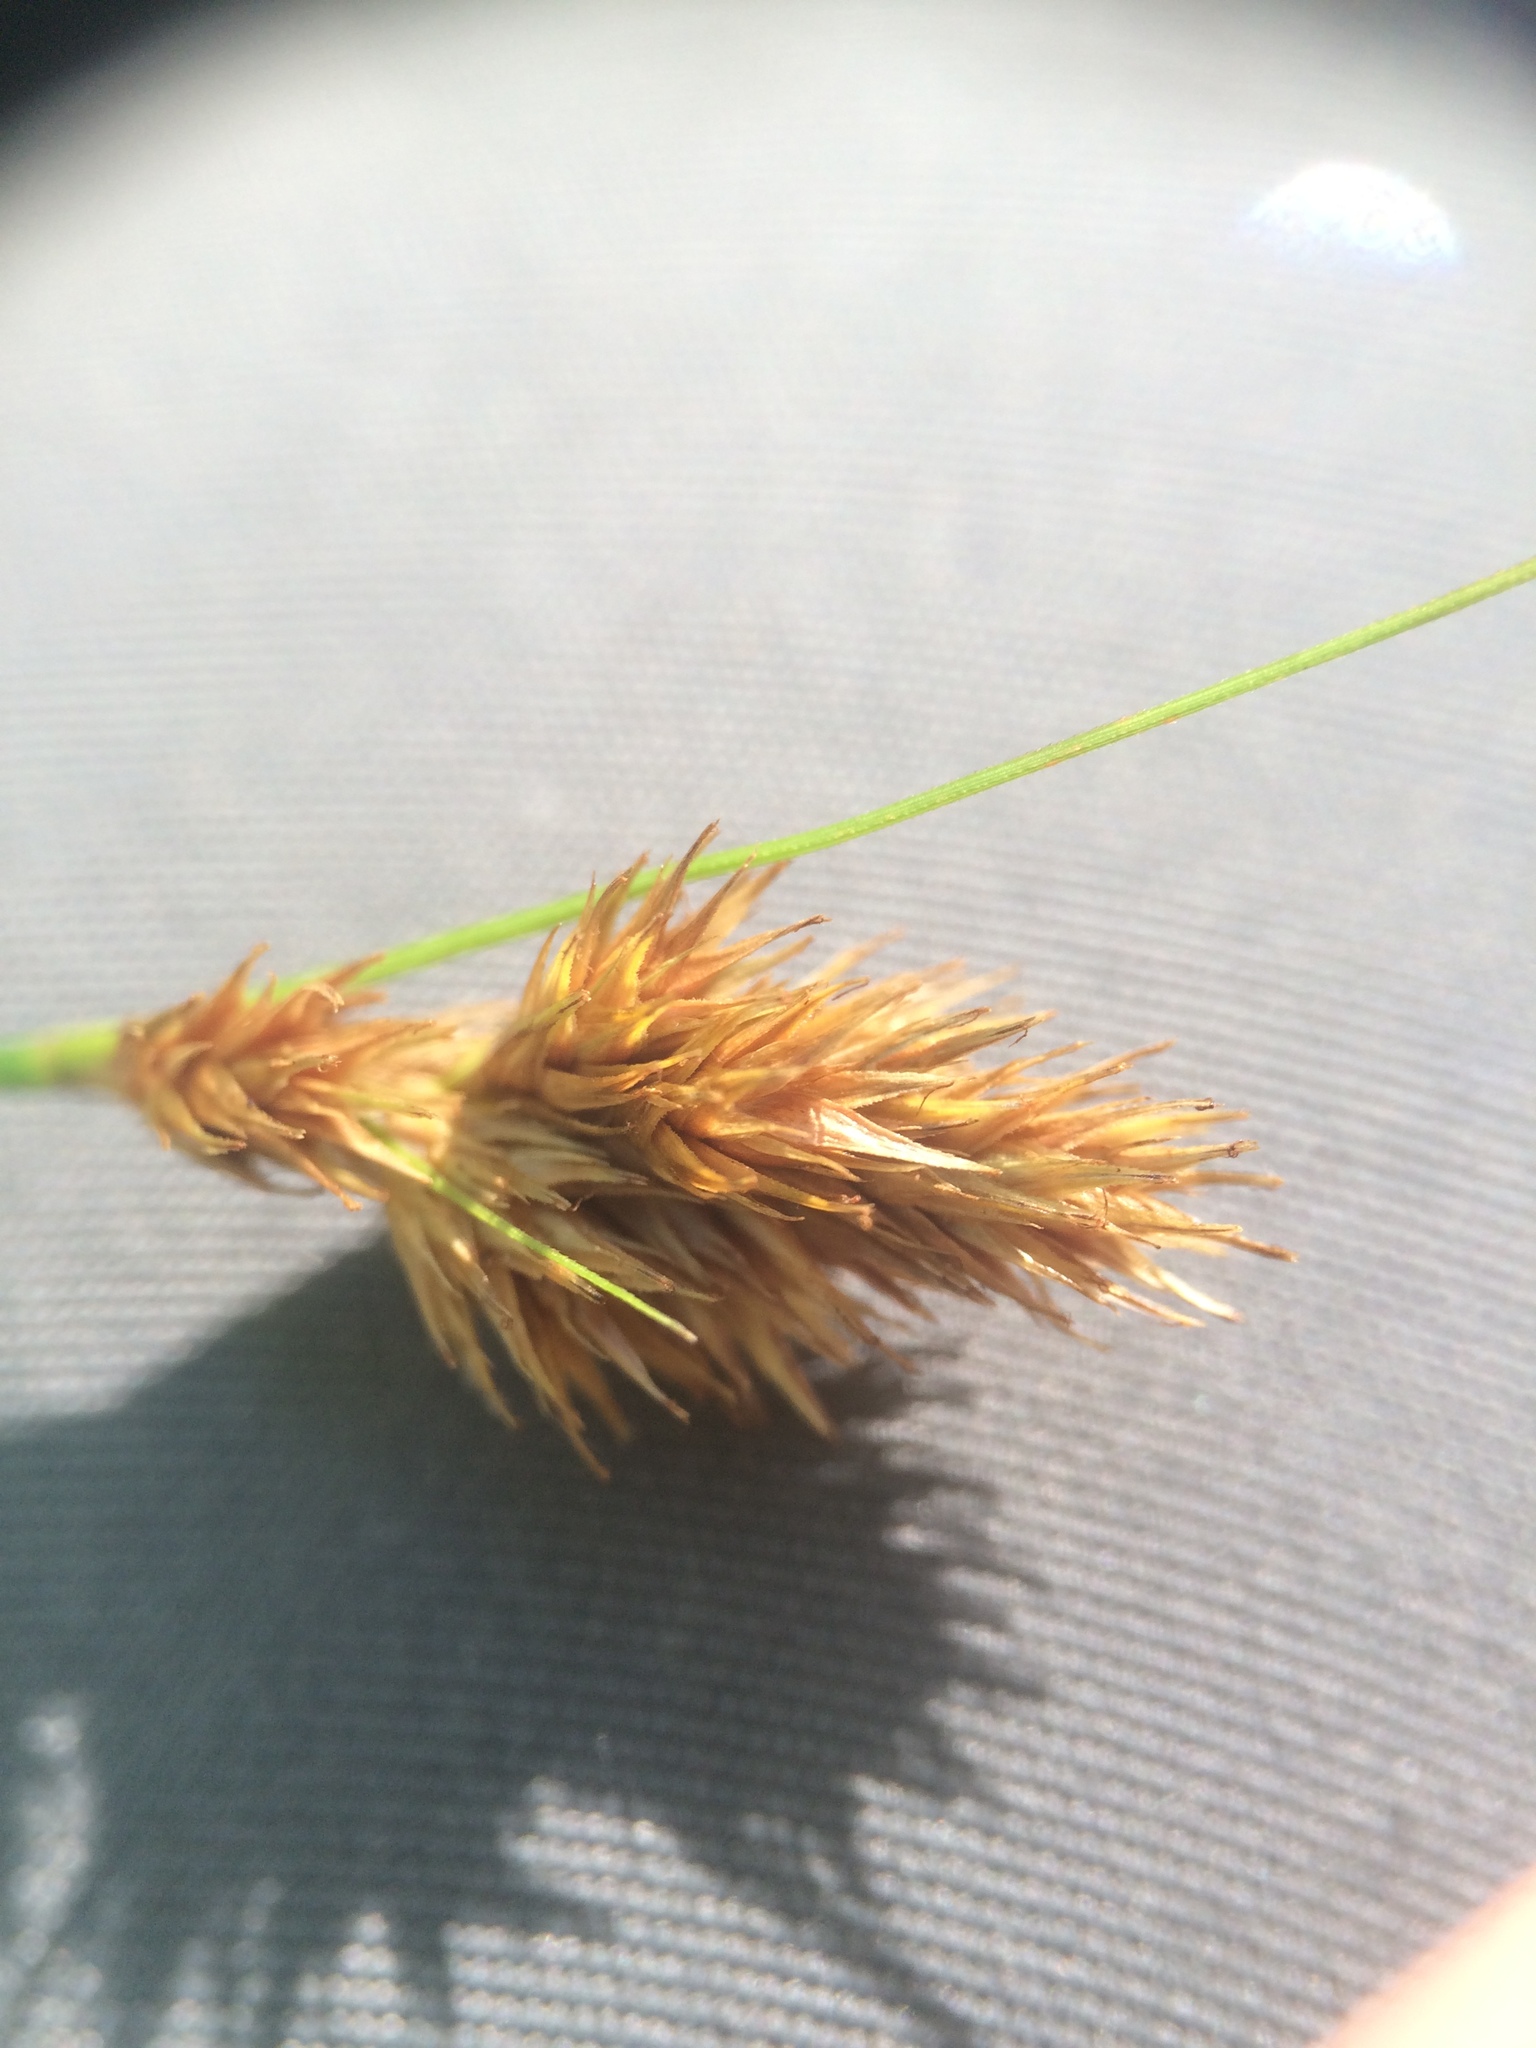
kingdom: Plantae
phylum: Tracheophyta
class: Liliopsida
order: Poales
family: Cyperaceae
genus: Carex
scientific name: Carex crawfordii
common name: Crawford's sedge
